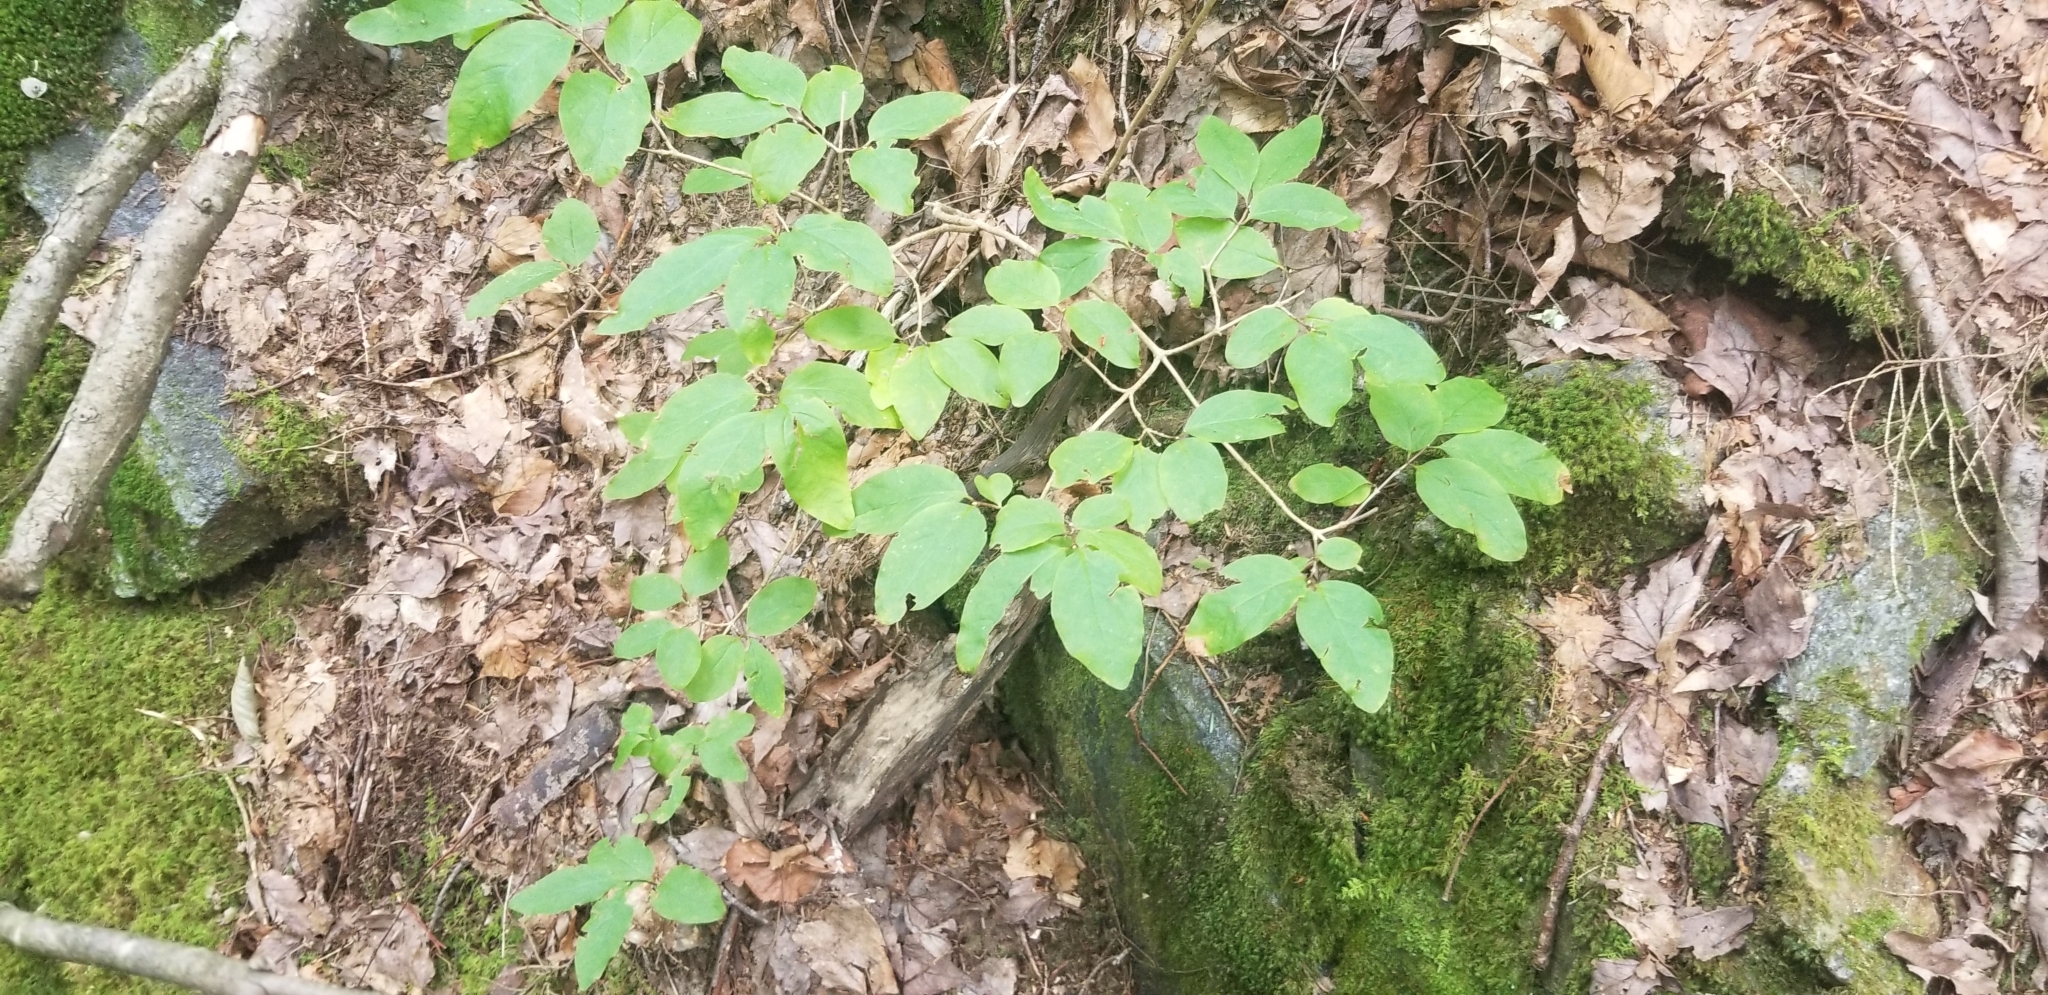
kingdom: Plantae
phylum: Tracheophyta
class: Magnoliopsida
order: Dipsacales
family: Caprifoliaceae
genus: Lonicera
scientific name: Lonicera canadensis
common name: American fly-honeysuckle
